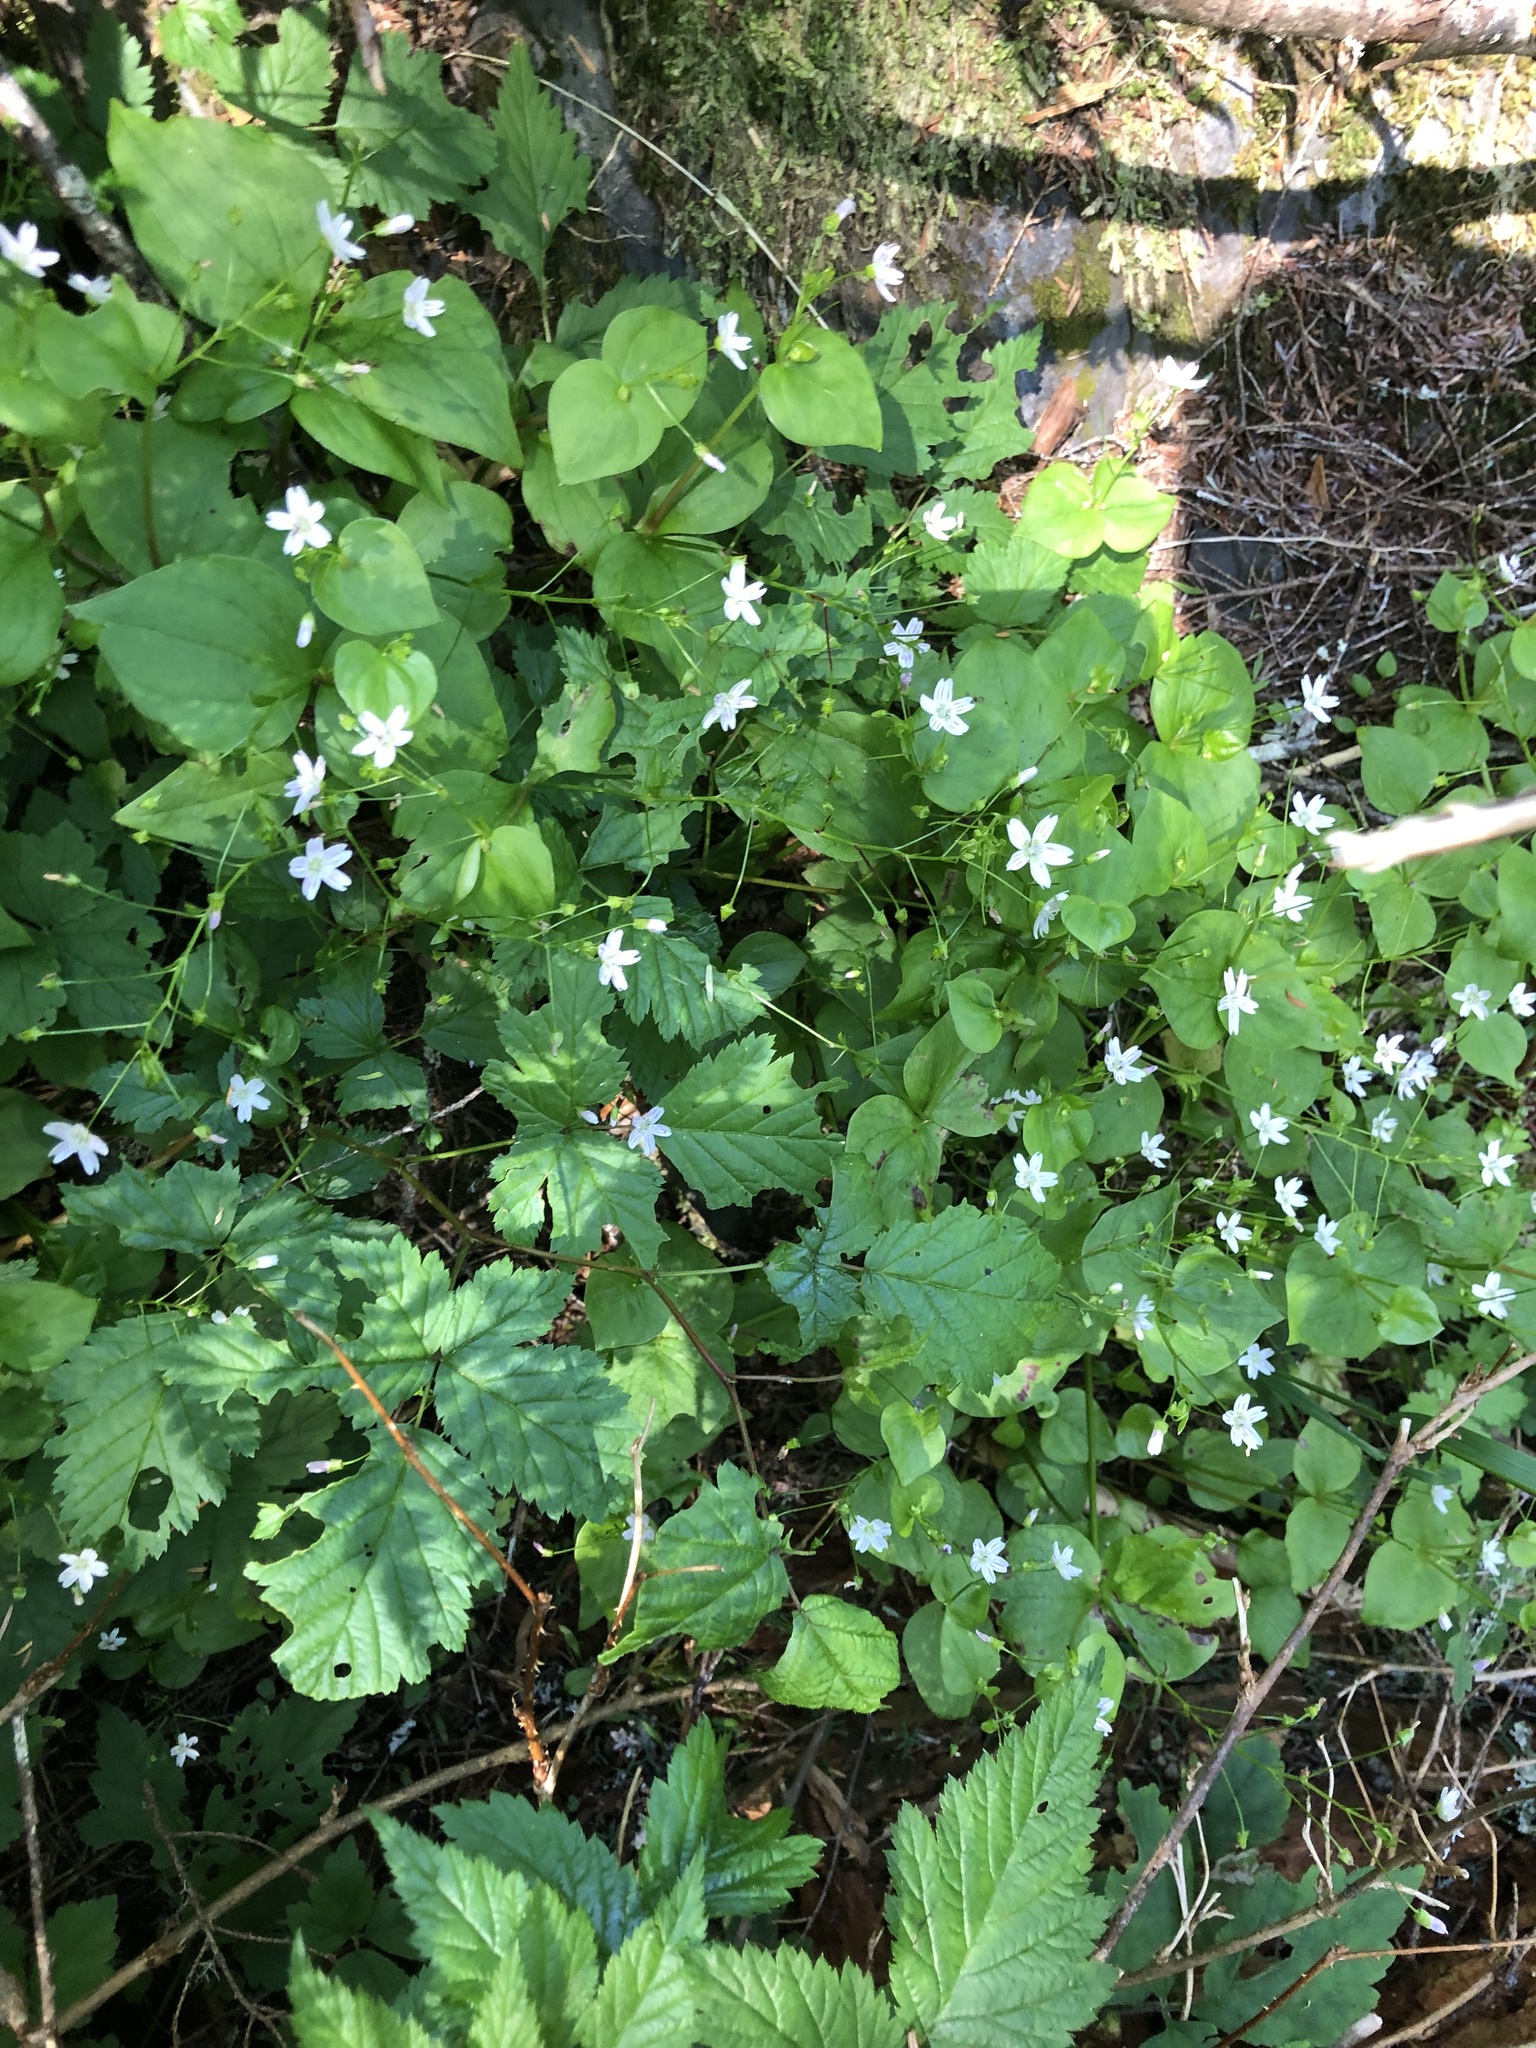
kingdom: Plantae
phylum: Tracheophyta
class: Magnoliopsida
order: Caryophyllales
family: Montiaceae
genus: Claytonia
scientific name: Claytonia sibirica
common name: Pink purslane
